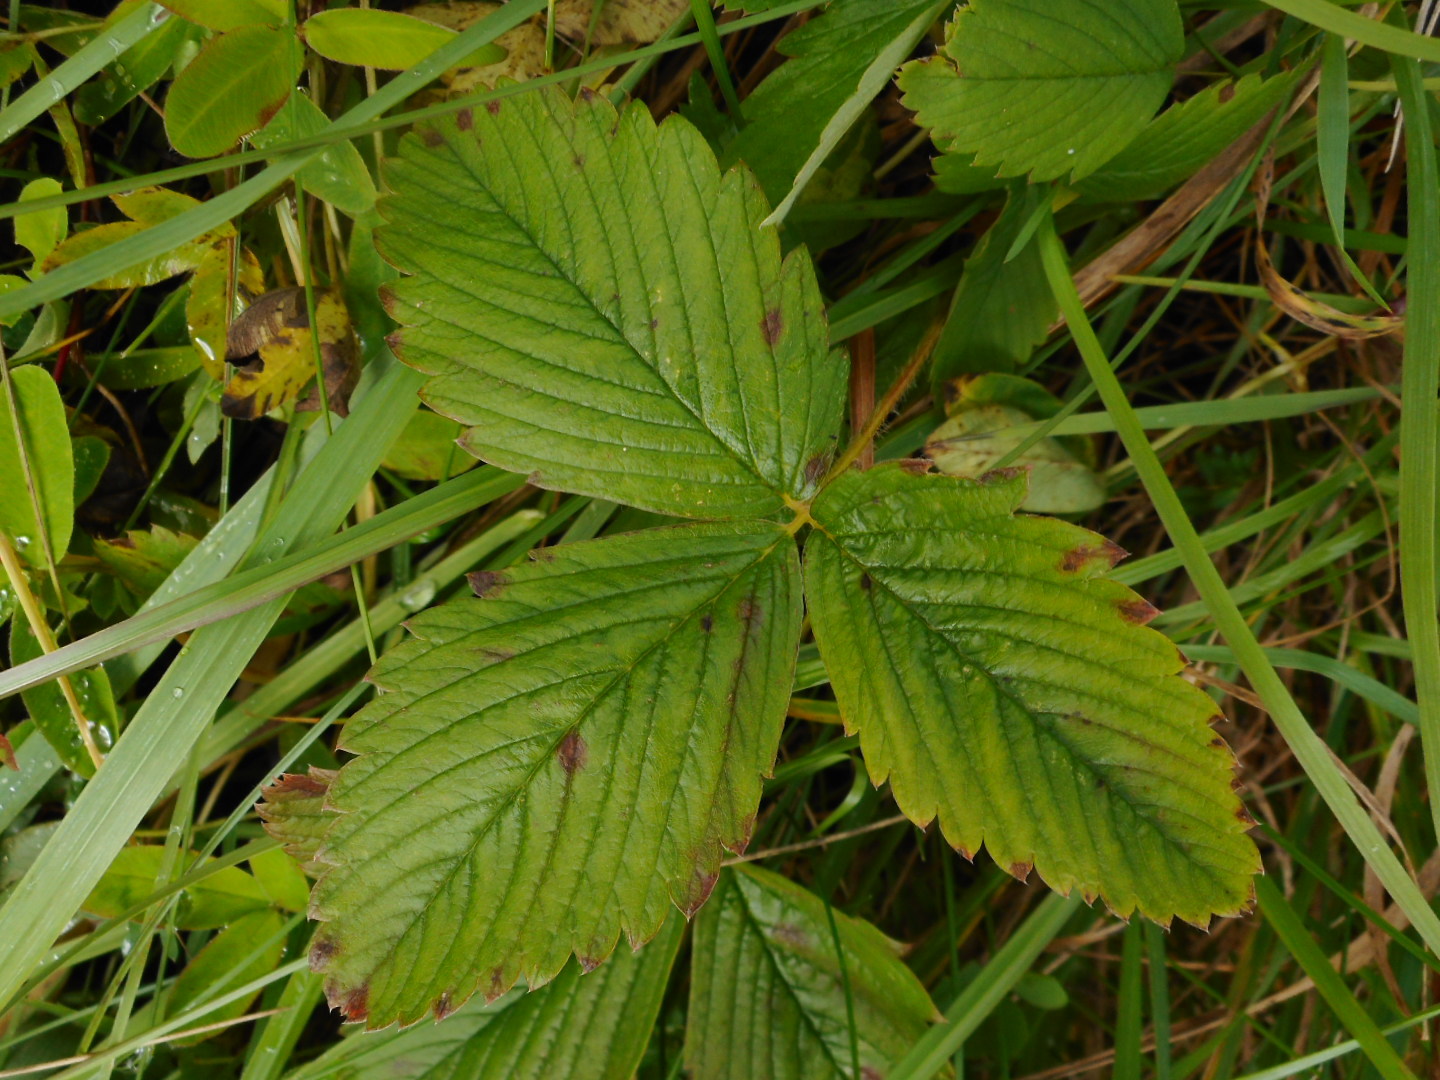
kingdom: Plantae
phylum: Tracheophyta
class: Magnoliopsida
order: Rosales
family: Rosaceae
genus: Fragaria
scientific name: Fragaria vesca
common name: Wild strawberry
